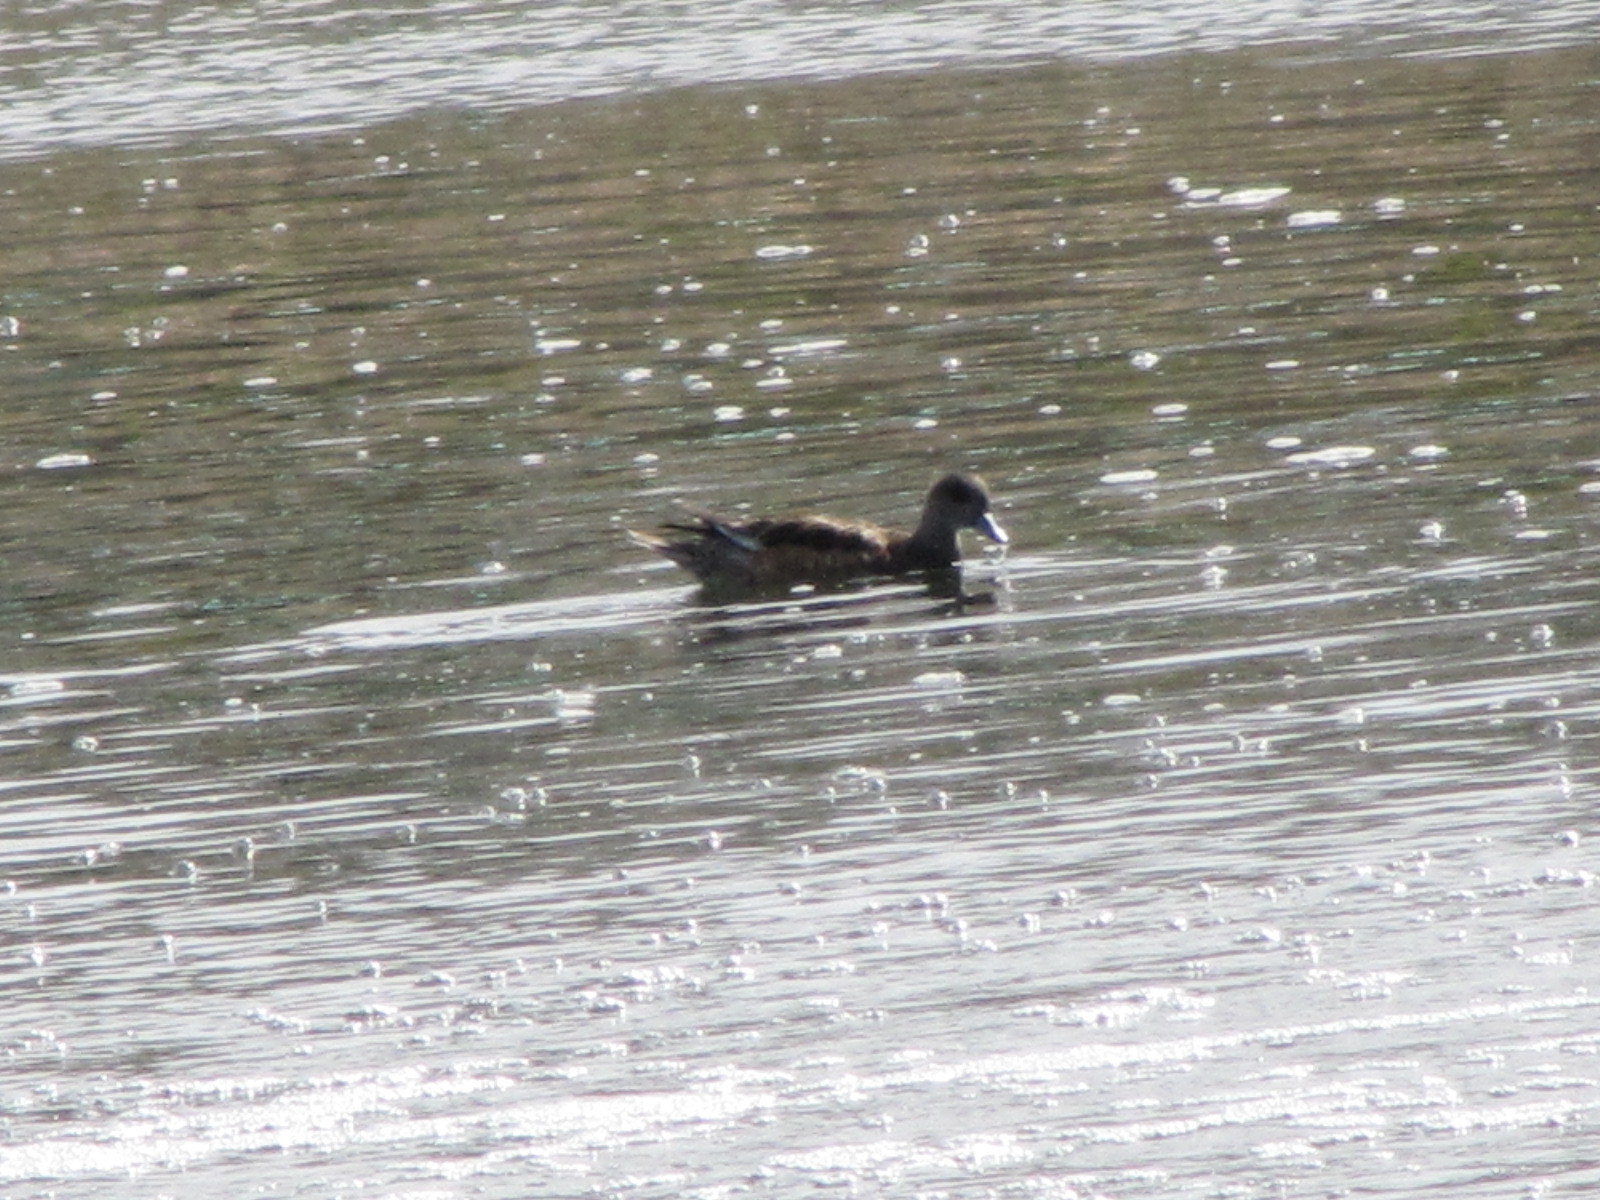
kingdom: Animalia
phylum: Chordata
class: Aves
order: Anseriformes
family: Anatidae
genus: Mareca
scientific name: Mareca americana
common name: American wigeon
